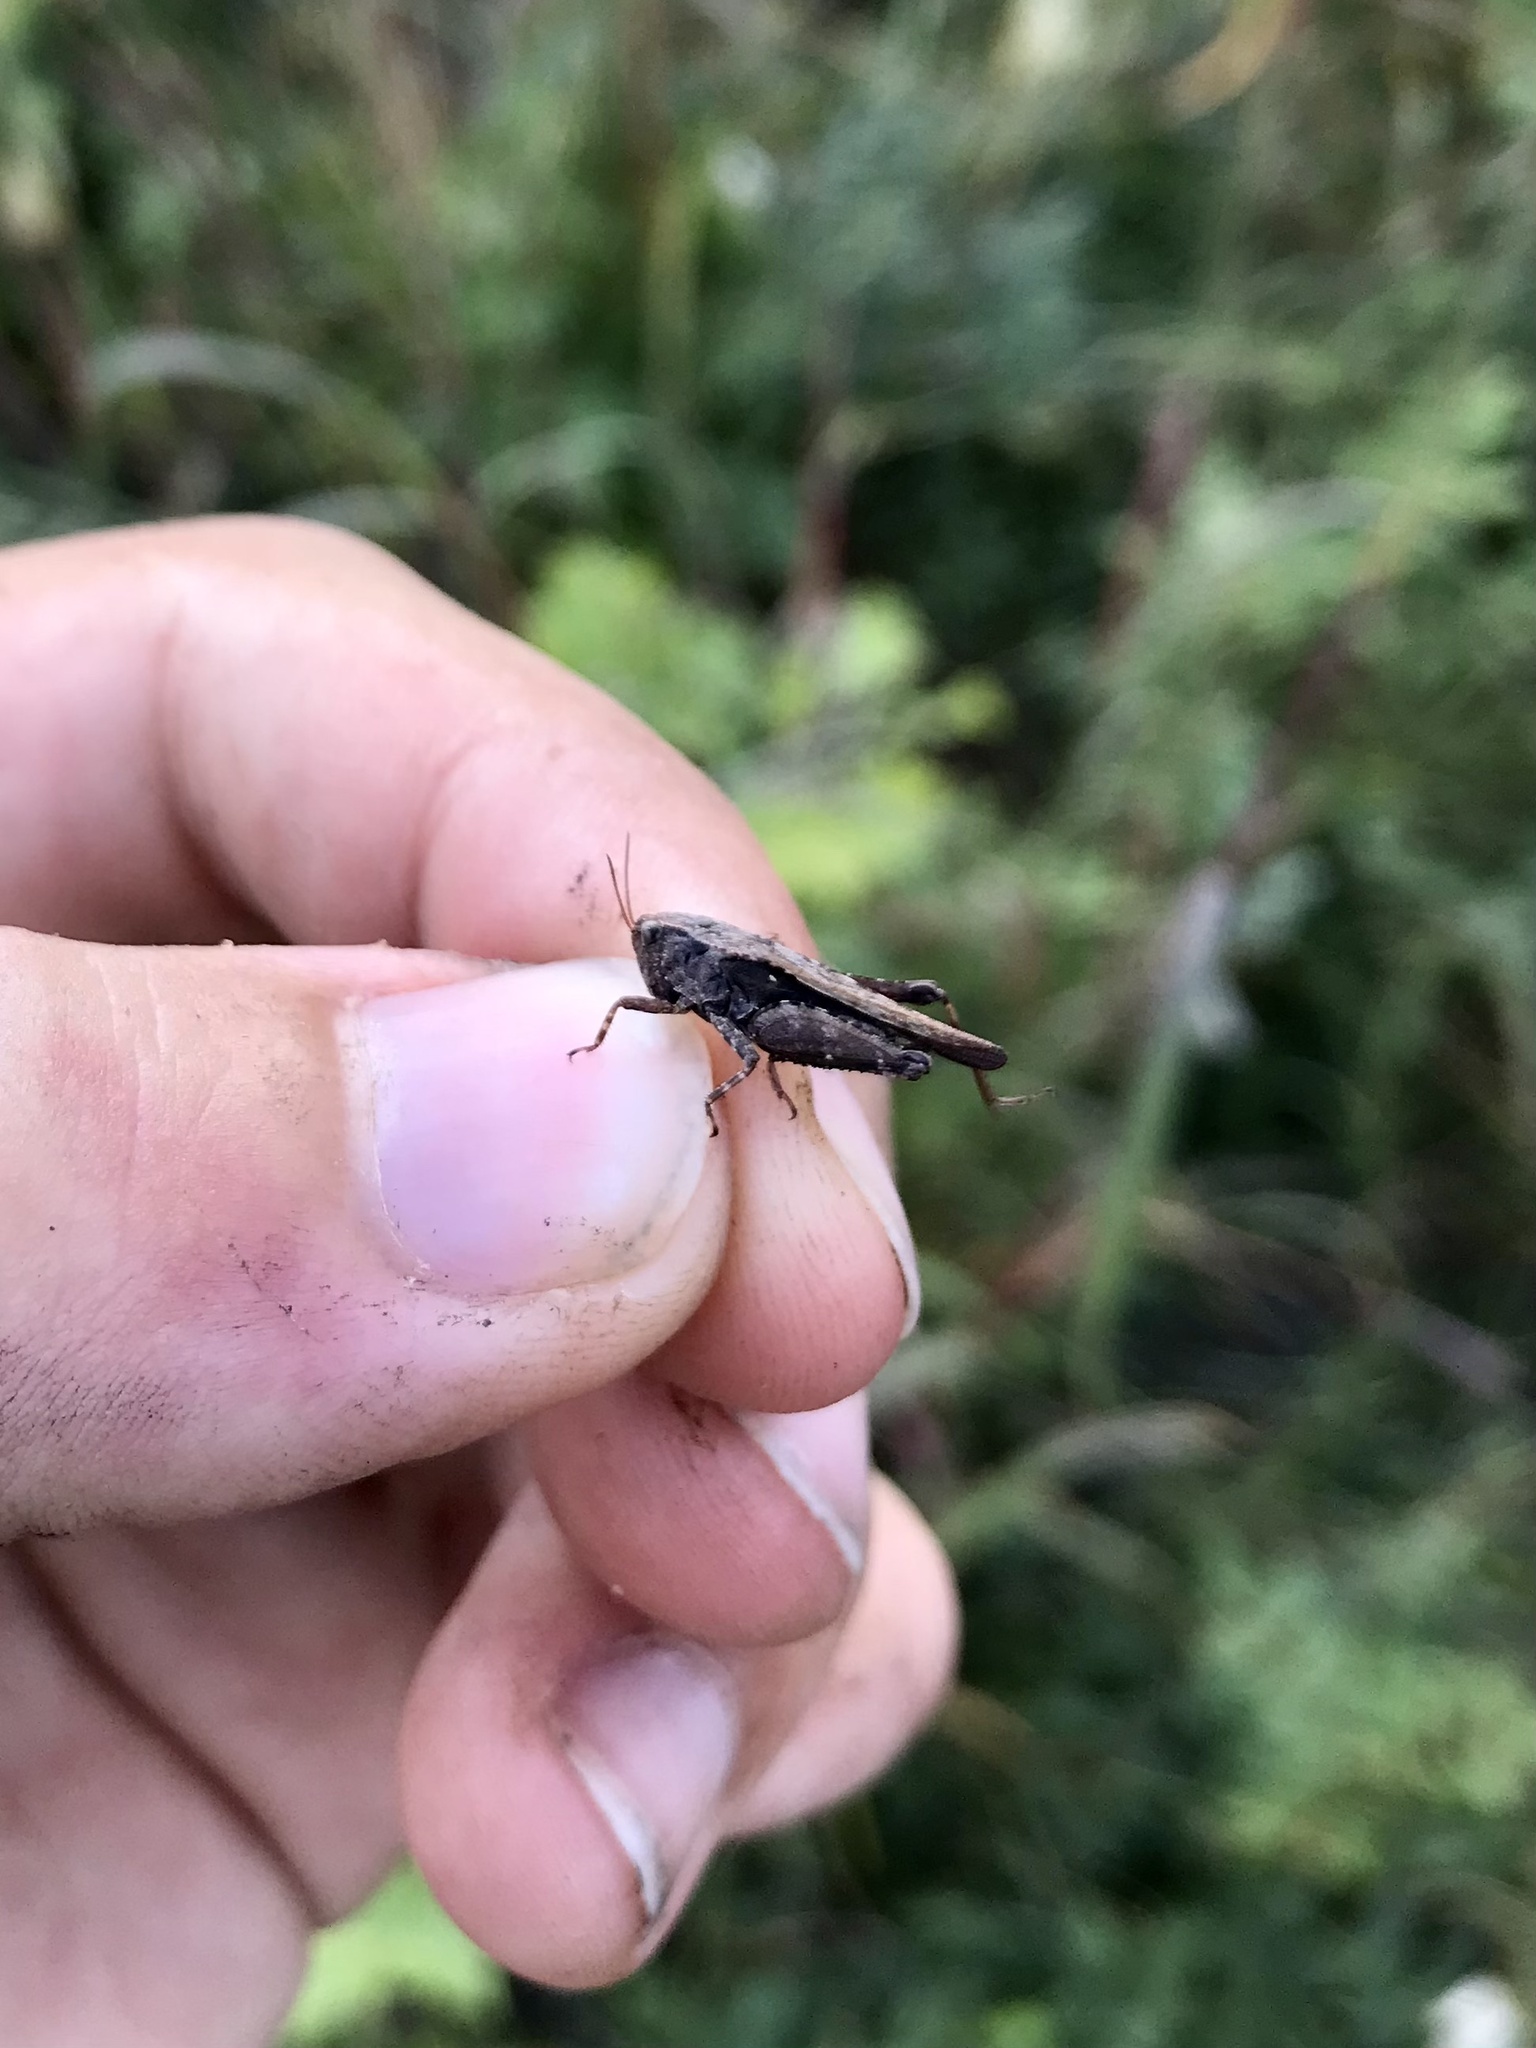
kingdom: Animalia
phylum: Arthropoda
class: Insecta
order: Orthoptera
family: Tetrigidae
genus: Tettigidea
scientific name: Tettigidea laterale
